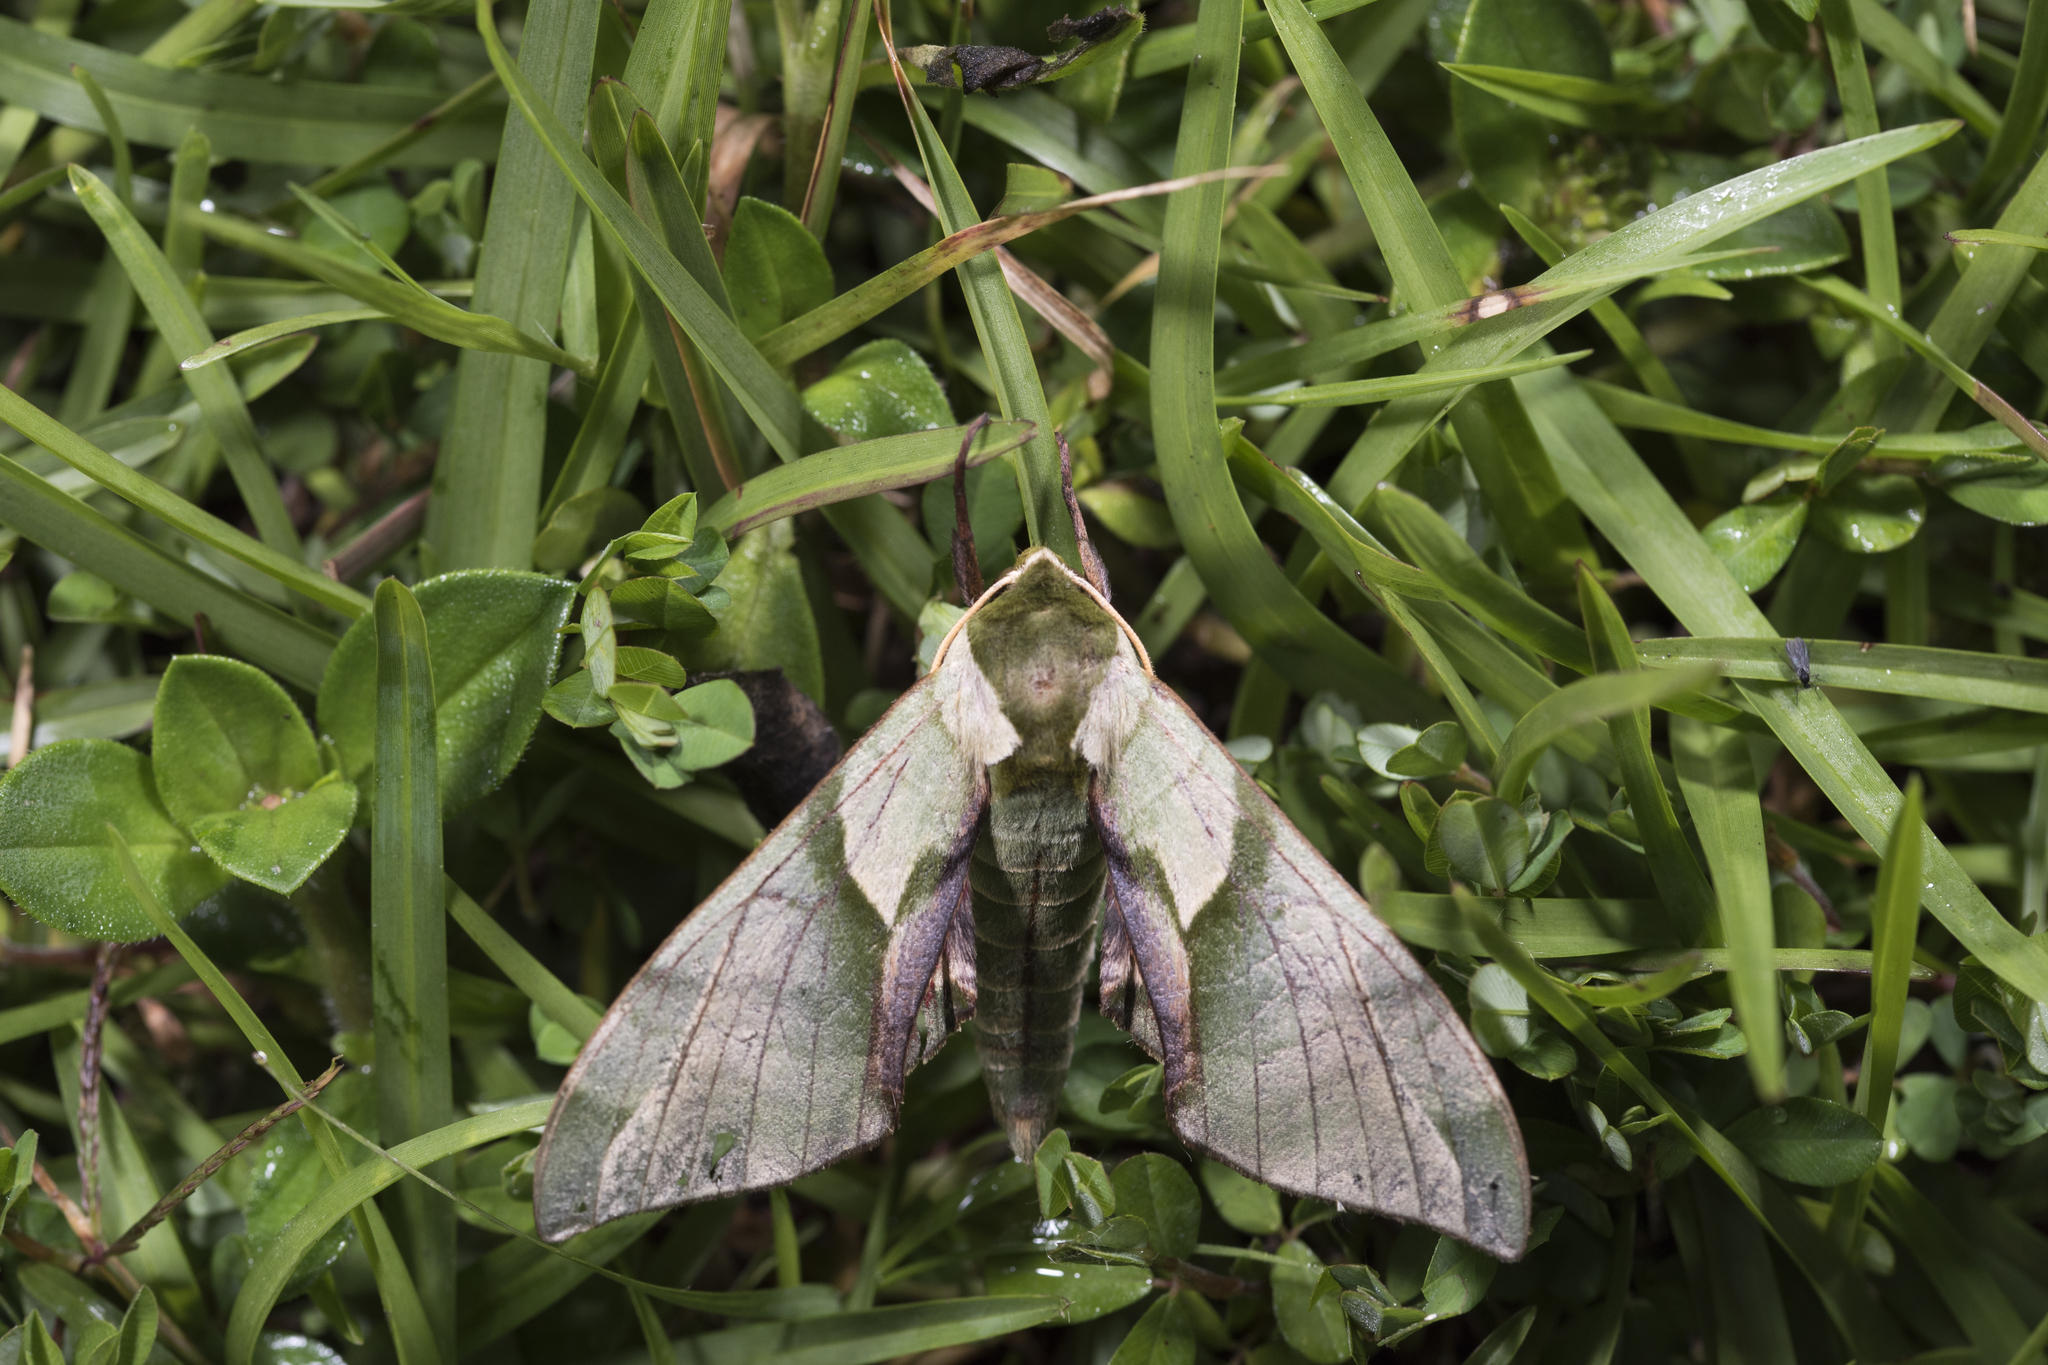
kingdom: Animalia
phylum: Arthropoda
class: Insecta
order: Lepidoptera
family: Sphingidae
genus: Callambulyx
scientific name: Callambulyx tatarinovii
